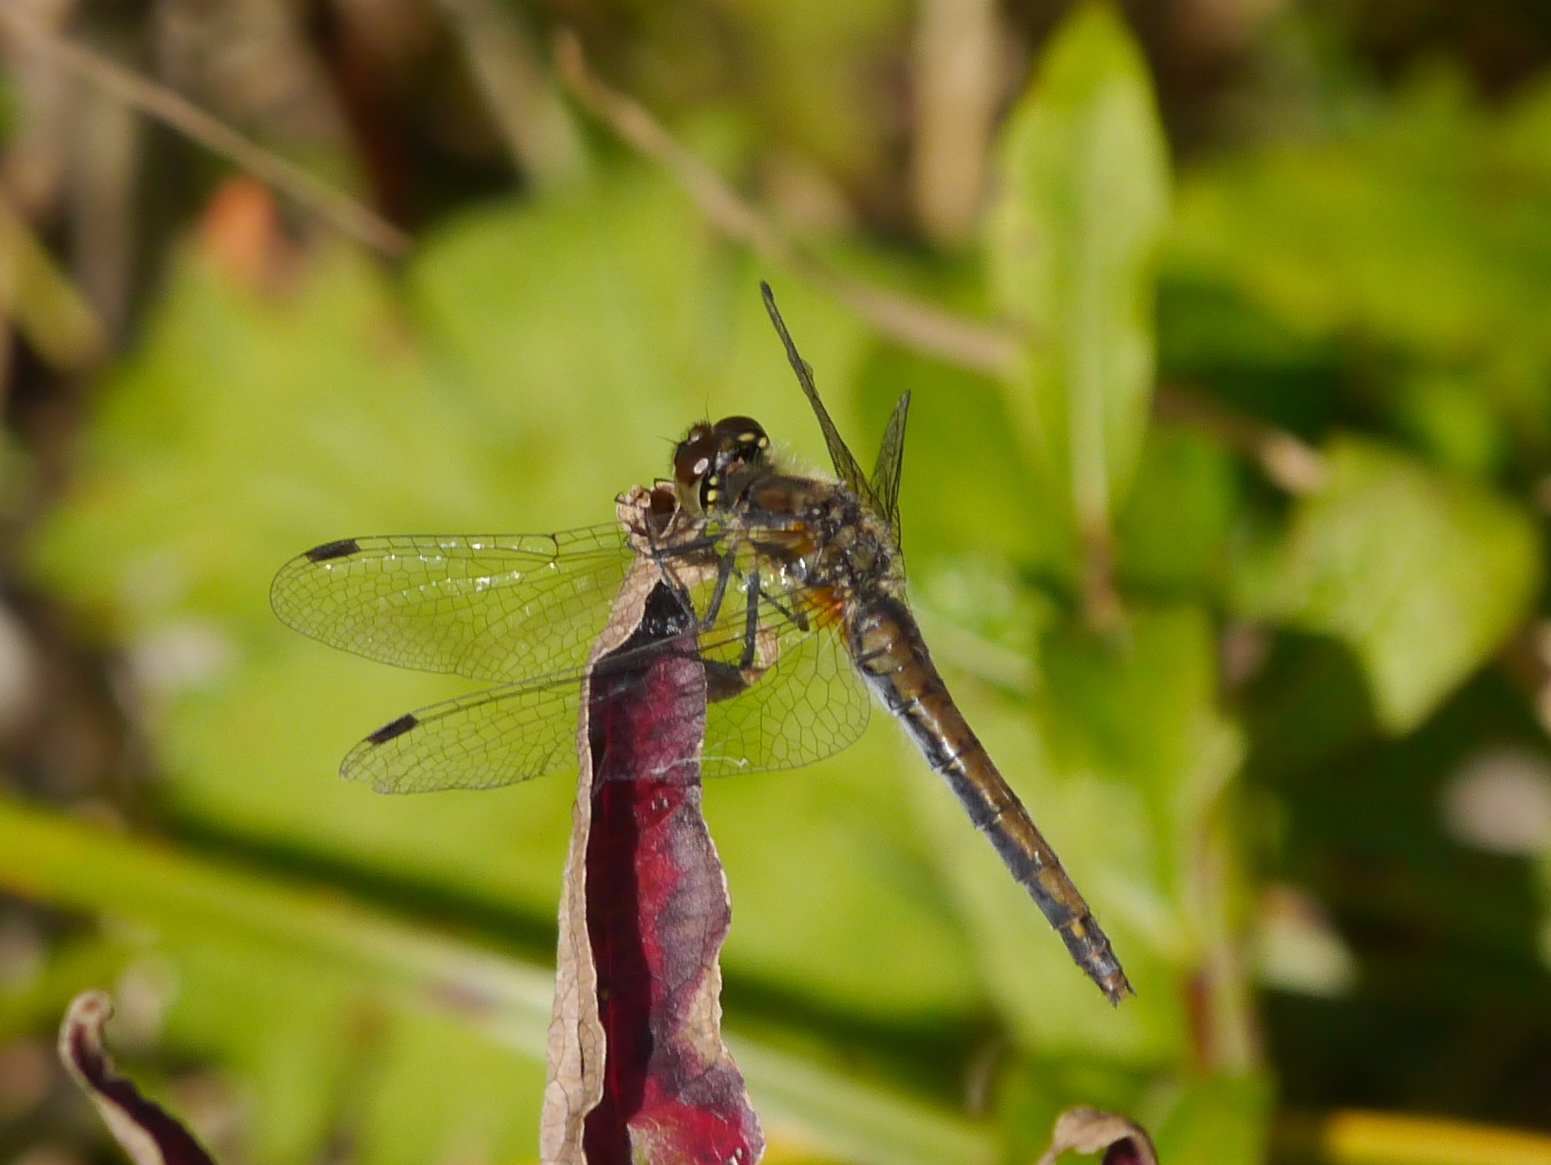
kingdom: Animalia
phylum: Arthropoda
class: Insecta
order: Odonata
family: Libellulidae
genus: Sympetrum
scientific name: Sympetrum danae
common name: Black darter
